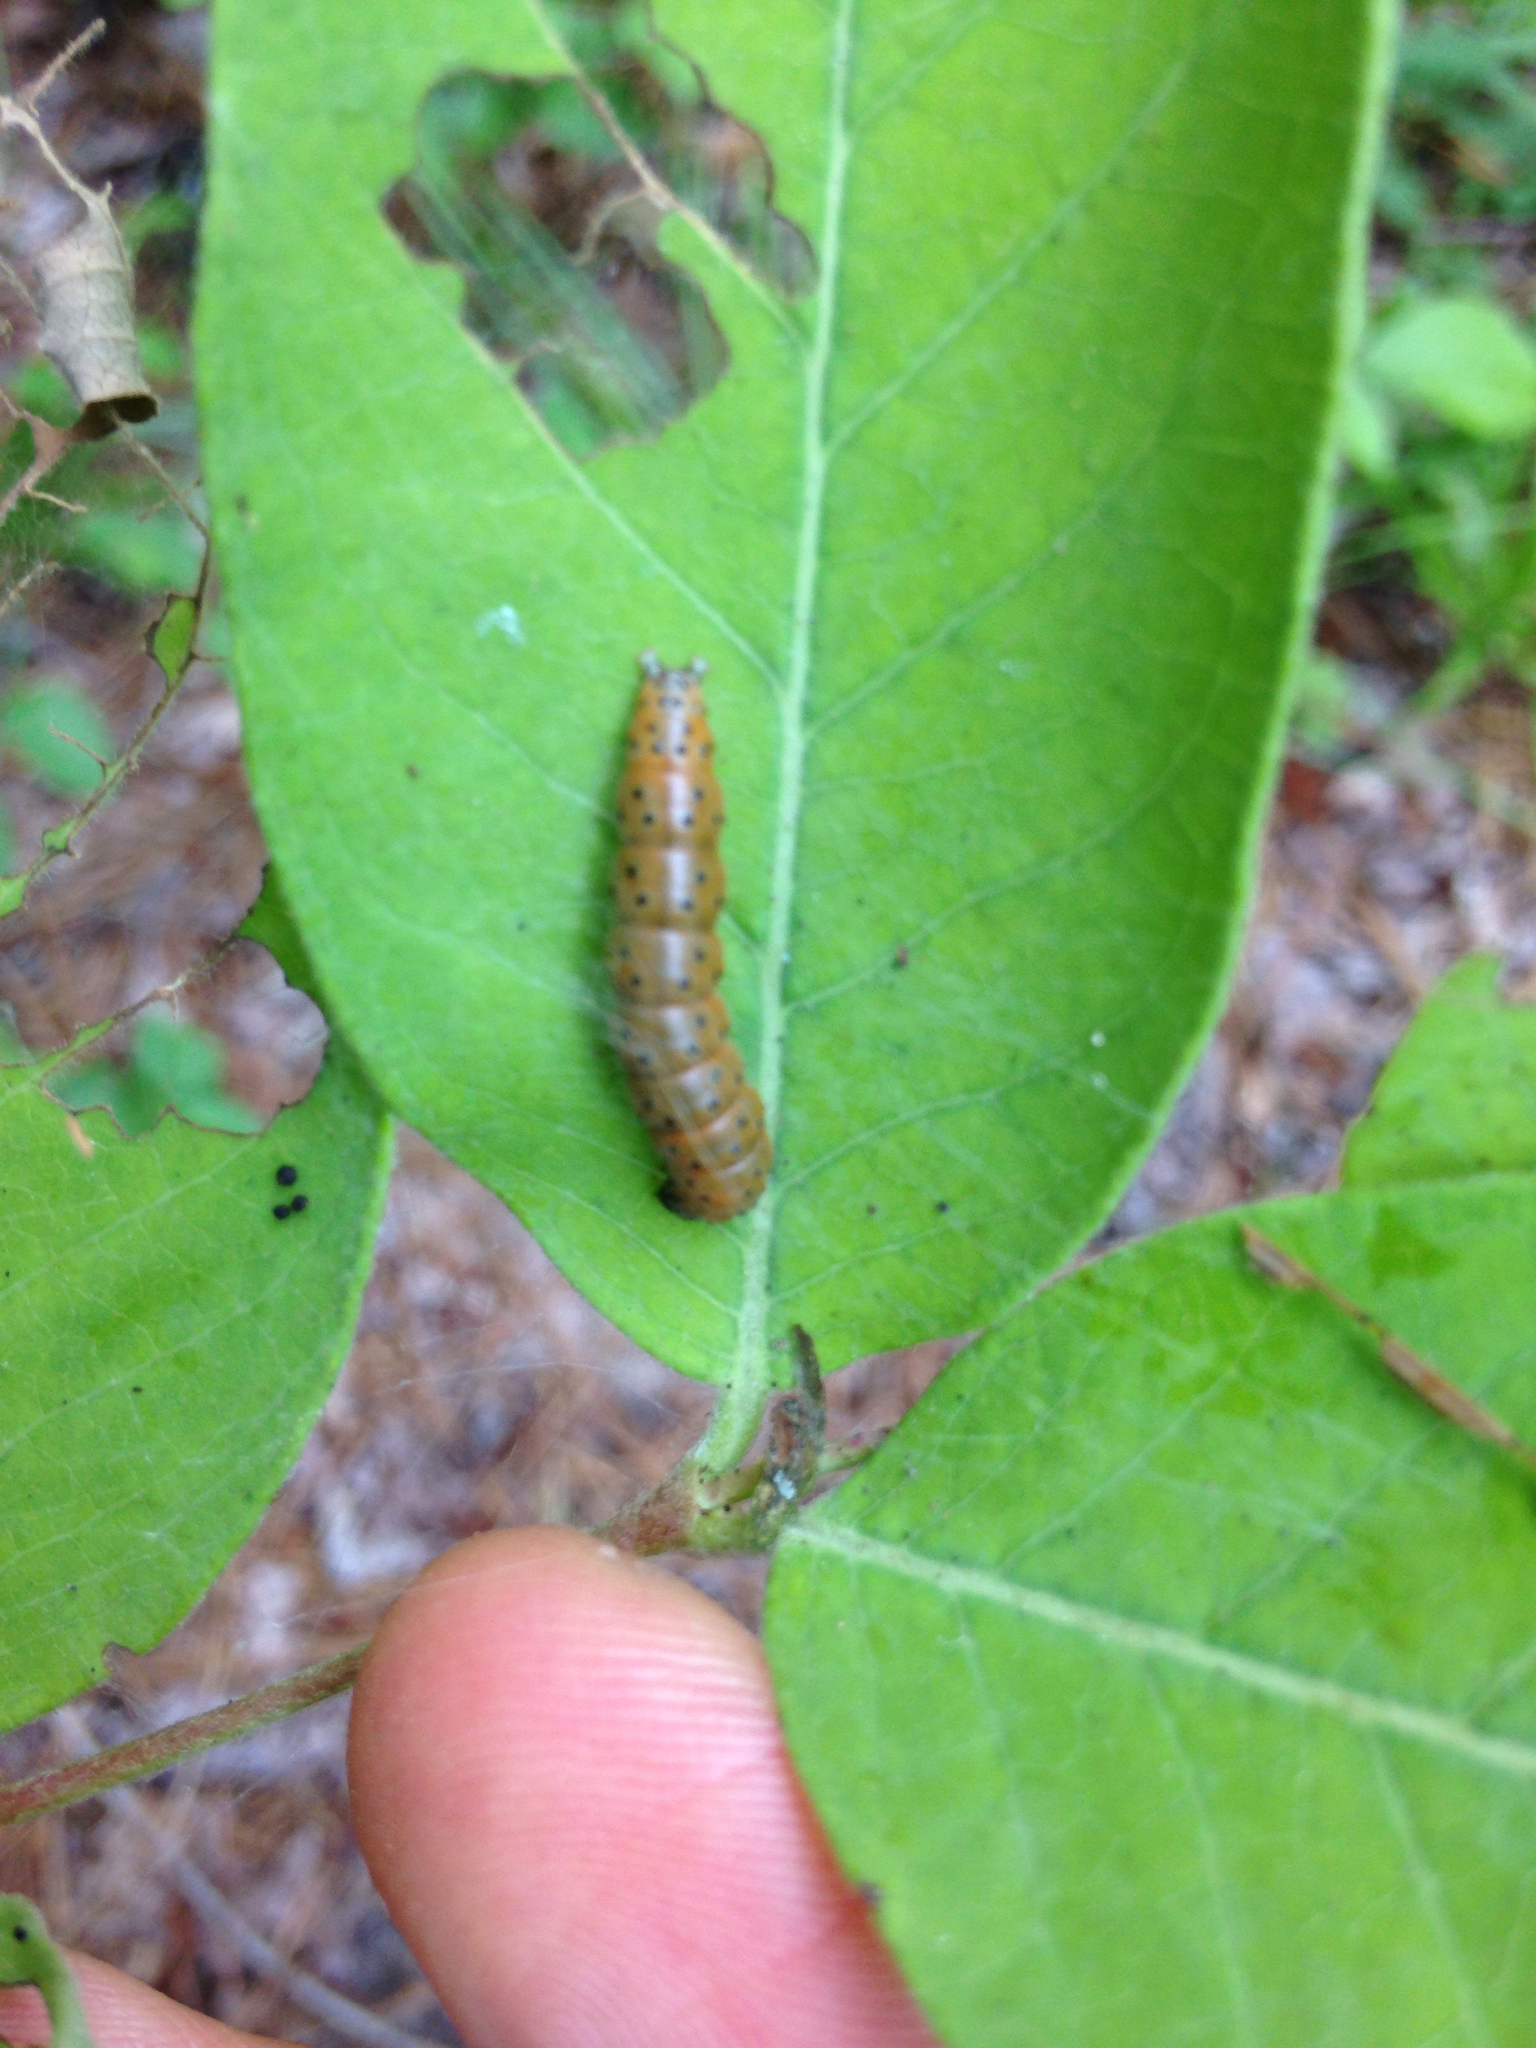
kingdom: Animalia
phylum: Arthropoda
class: Insecta
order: Lepidoptera
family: Crambidae
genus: Saucrobotys
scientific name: Saucrobotys futilalis
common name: Dogbane saucrobotys moth
